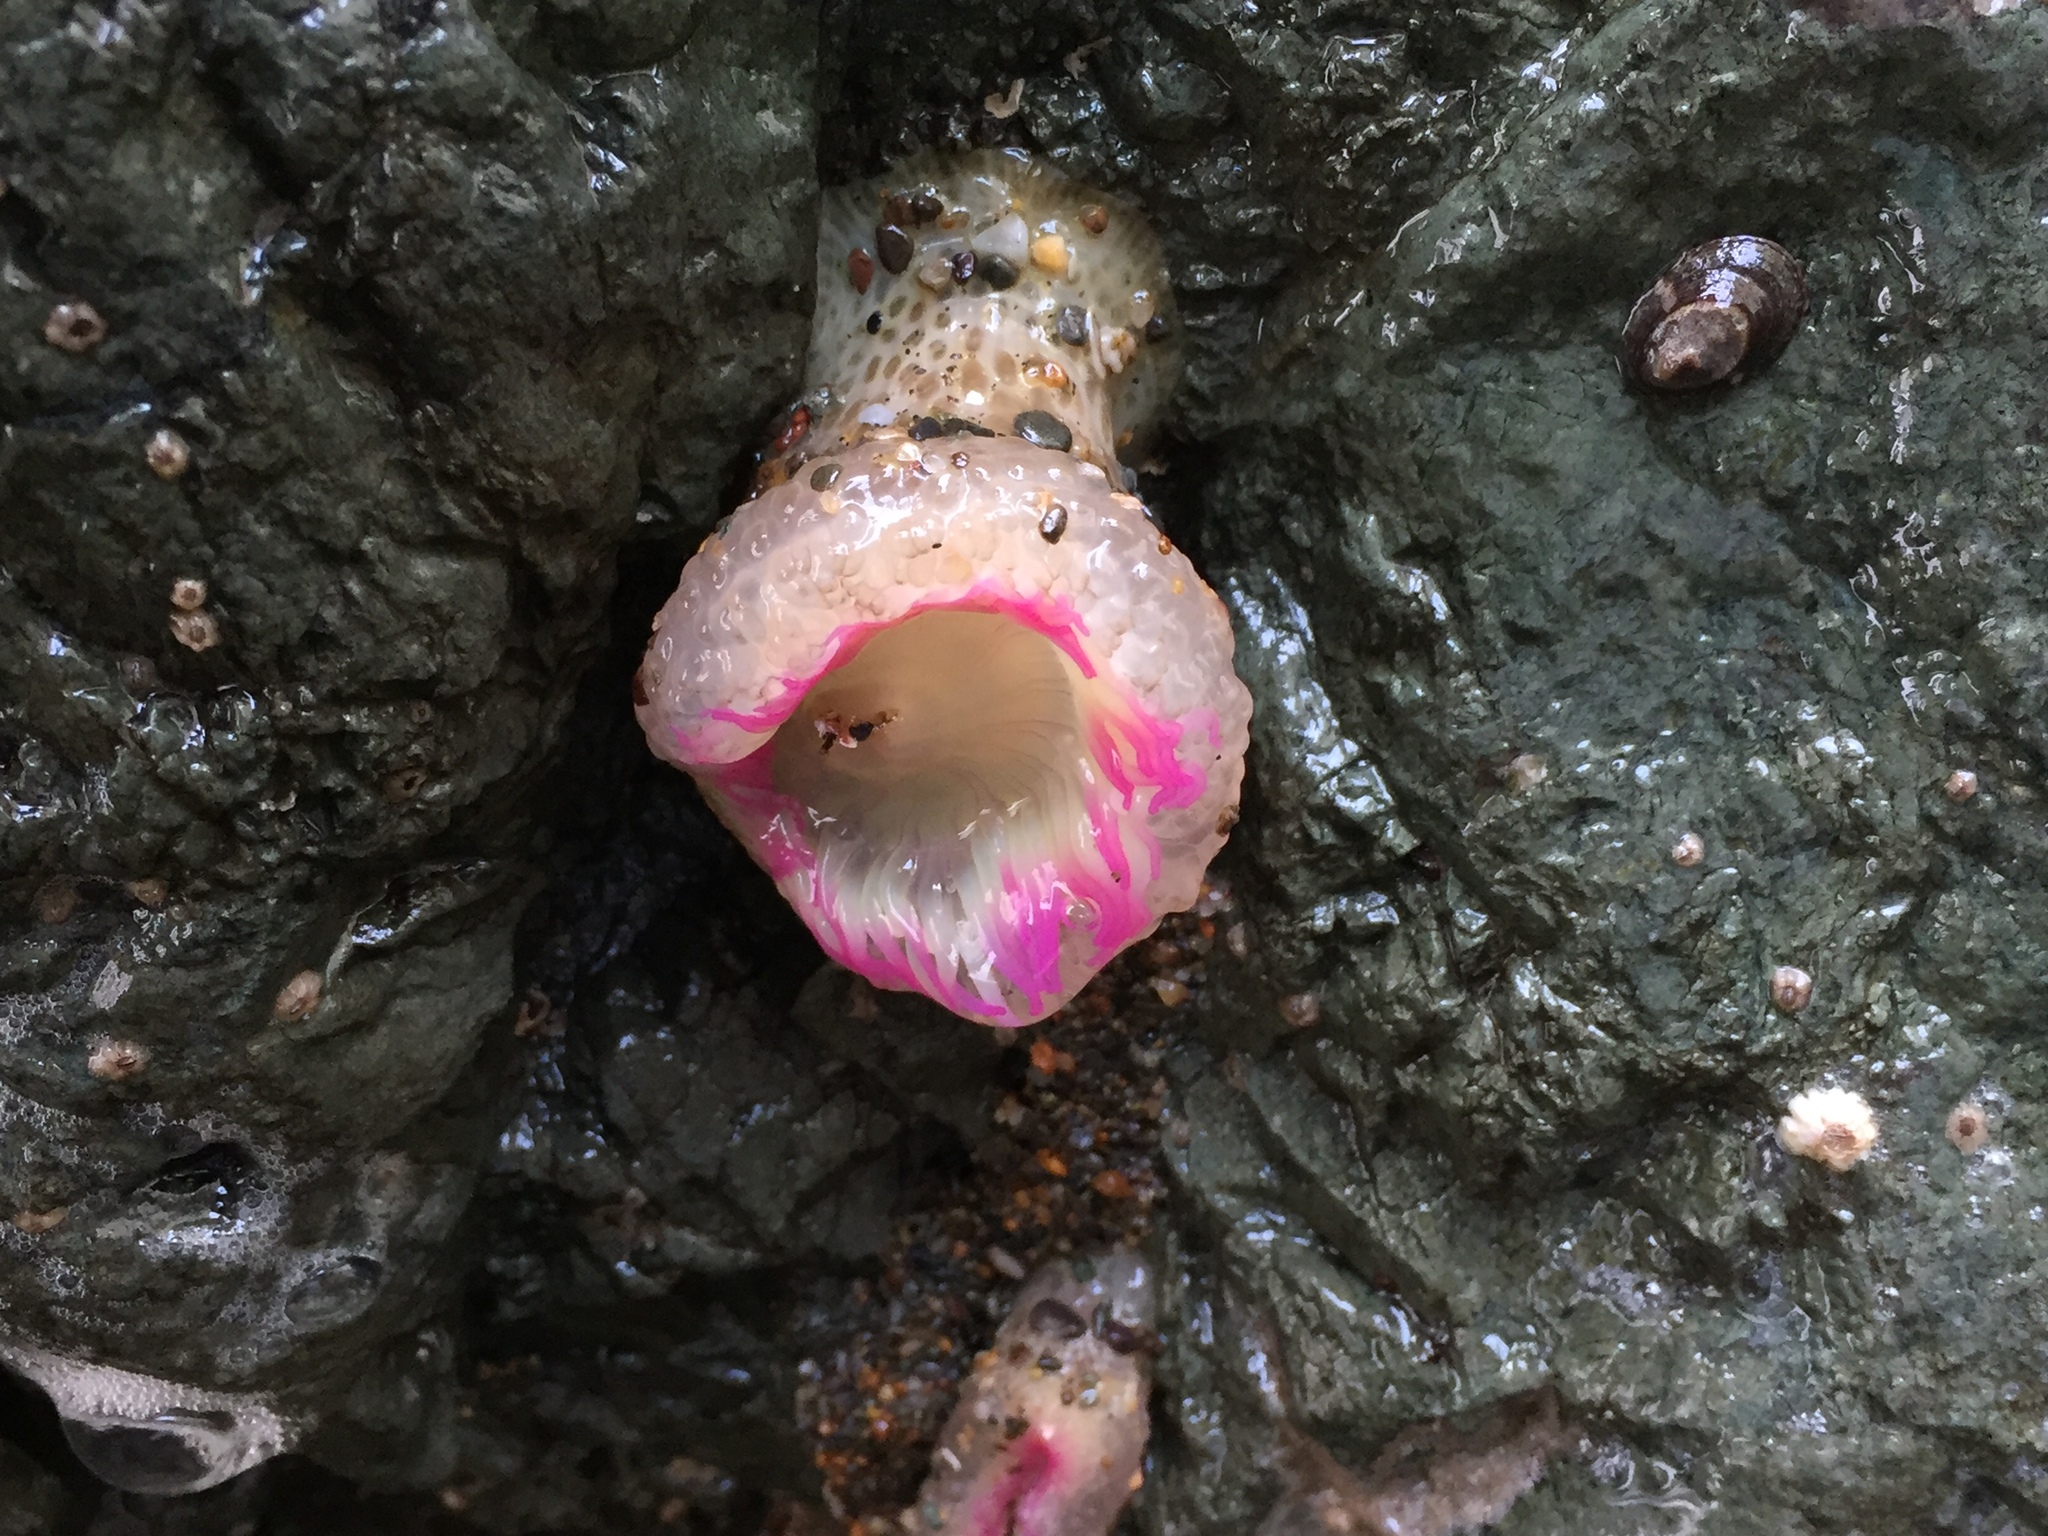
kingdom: Animalia
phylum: Cnidaria
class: Anthozoa
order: Actiniaria
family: Actiniidae
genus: Anthopleura
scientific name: Anthopleura elegantissima
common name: Clonal anemone
